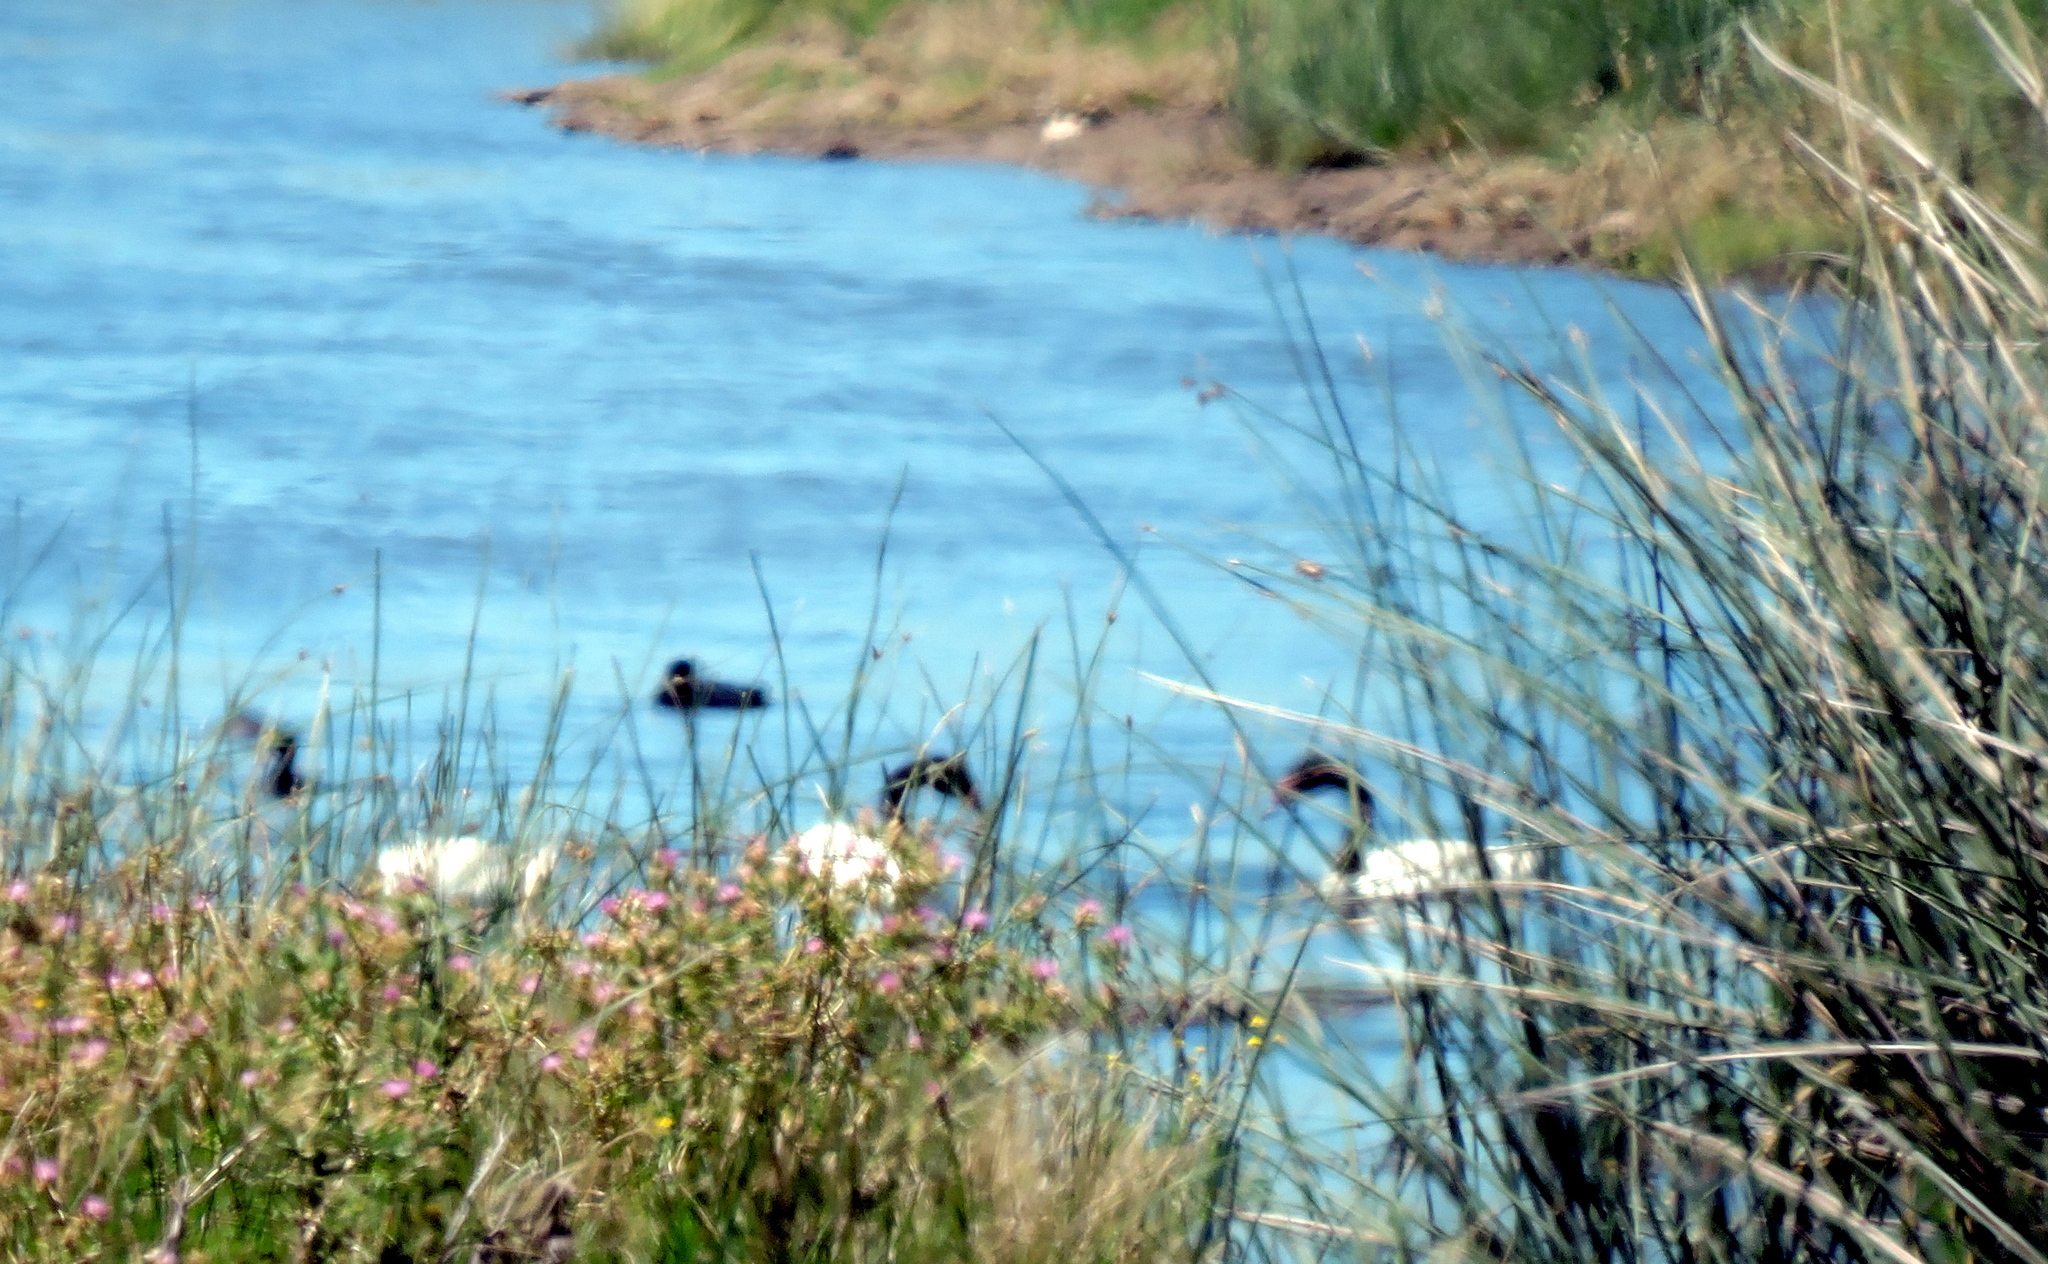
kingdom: Animalia
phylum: Chordata
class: Aves
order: Anseriformes
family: Anatidae
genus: Cygnus
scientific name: Cygnus melancoryphus
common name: Black-necked swan
